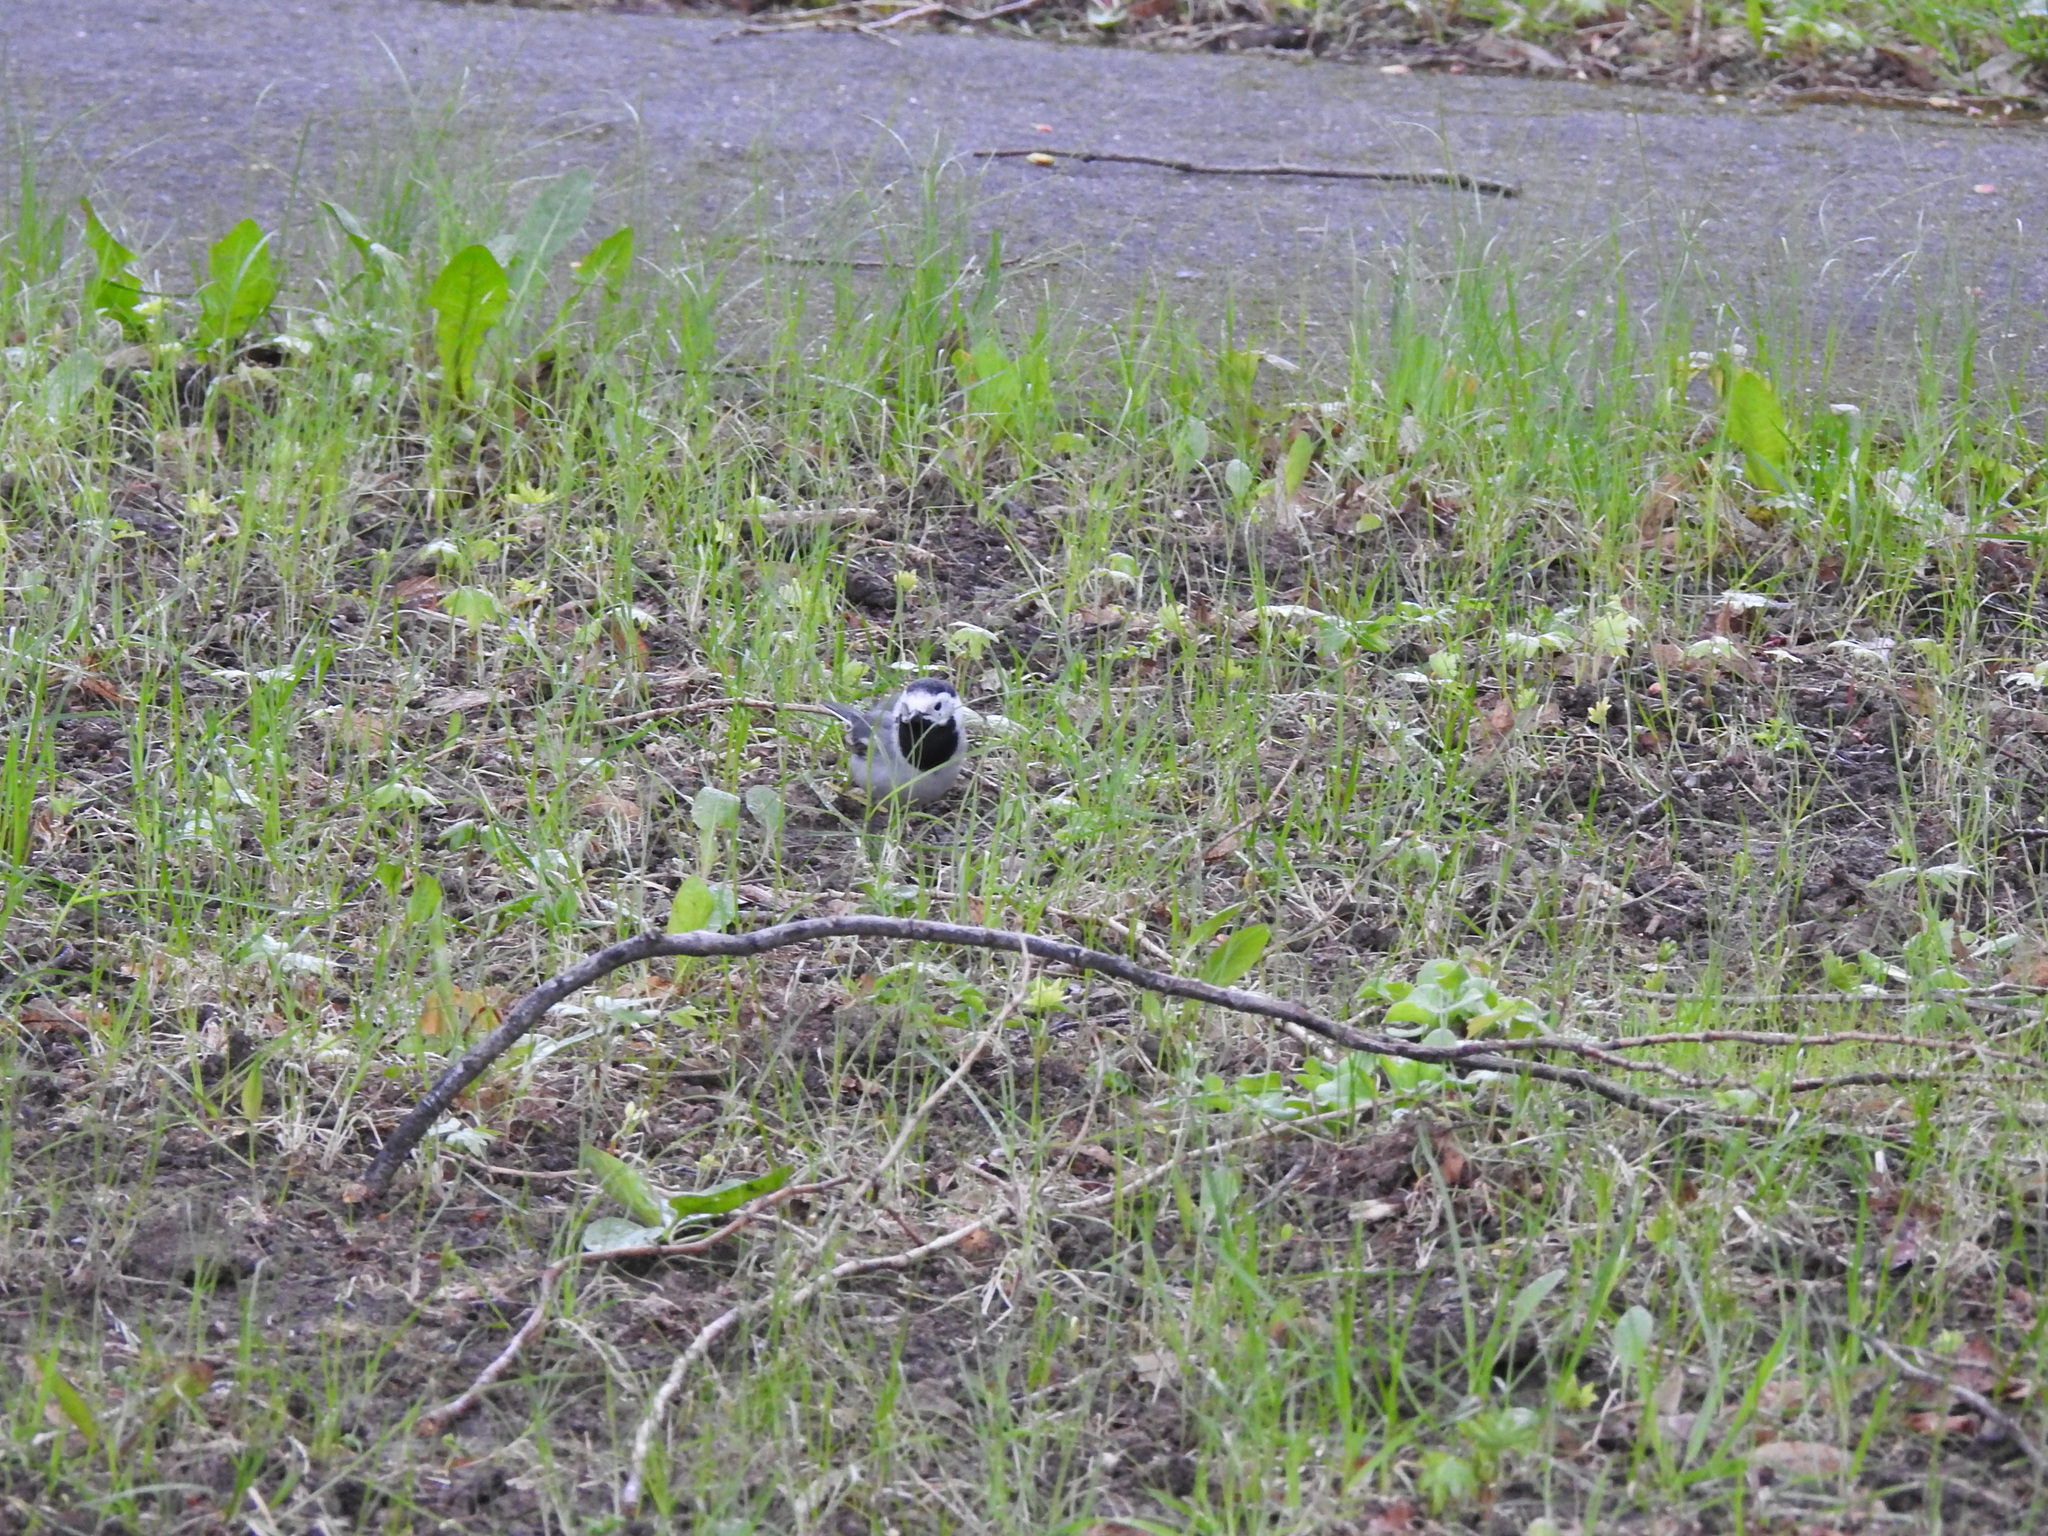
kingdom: Animalia
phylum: Chordata
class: Aves
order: Passeriformes
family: Motacillidae
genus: Motacilla
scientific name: Motacilla alba
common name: White wagtail
